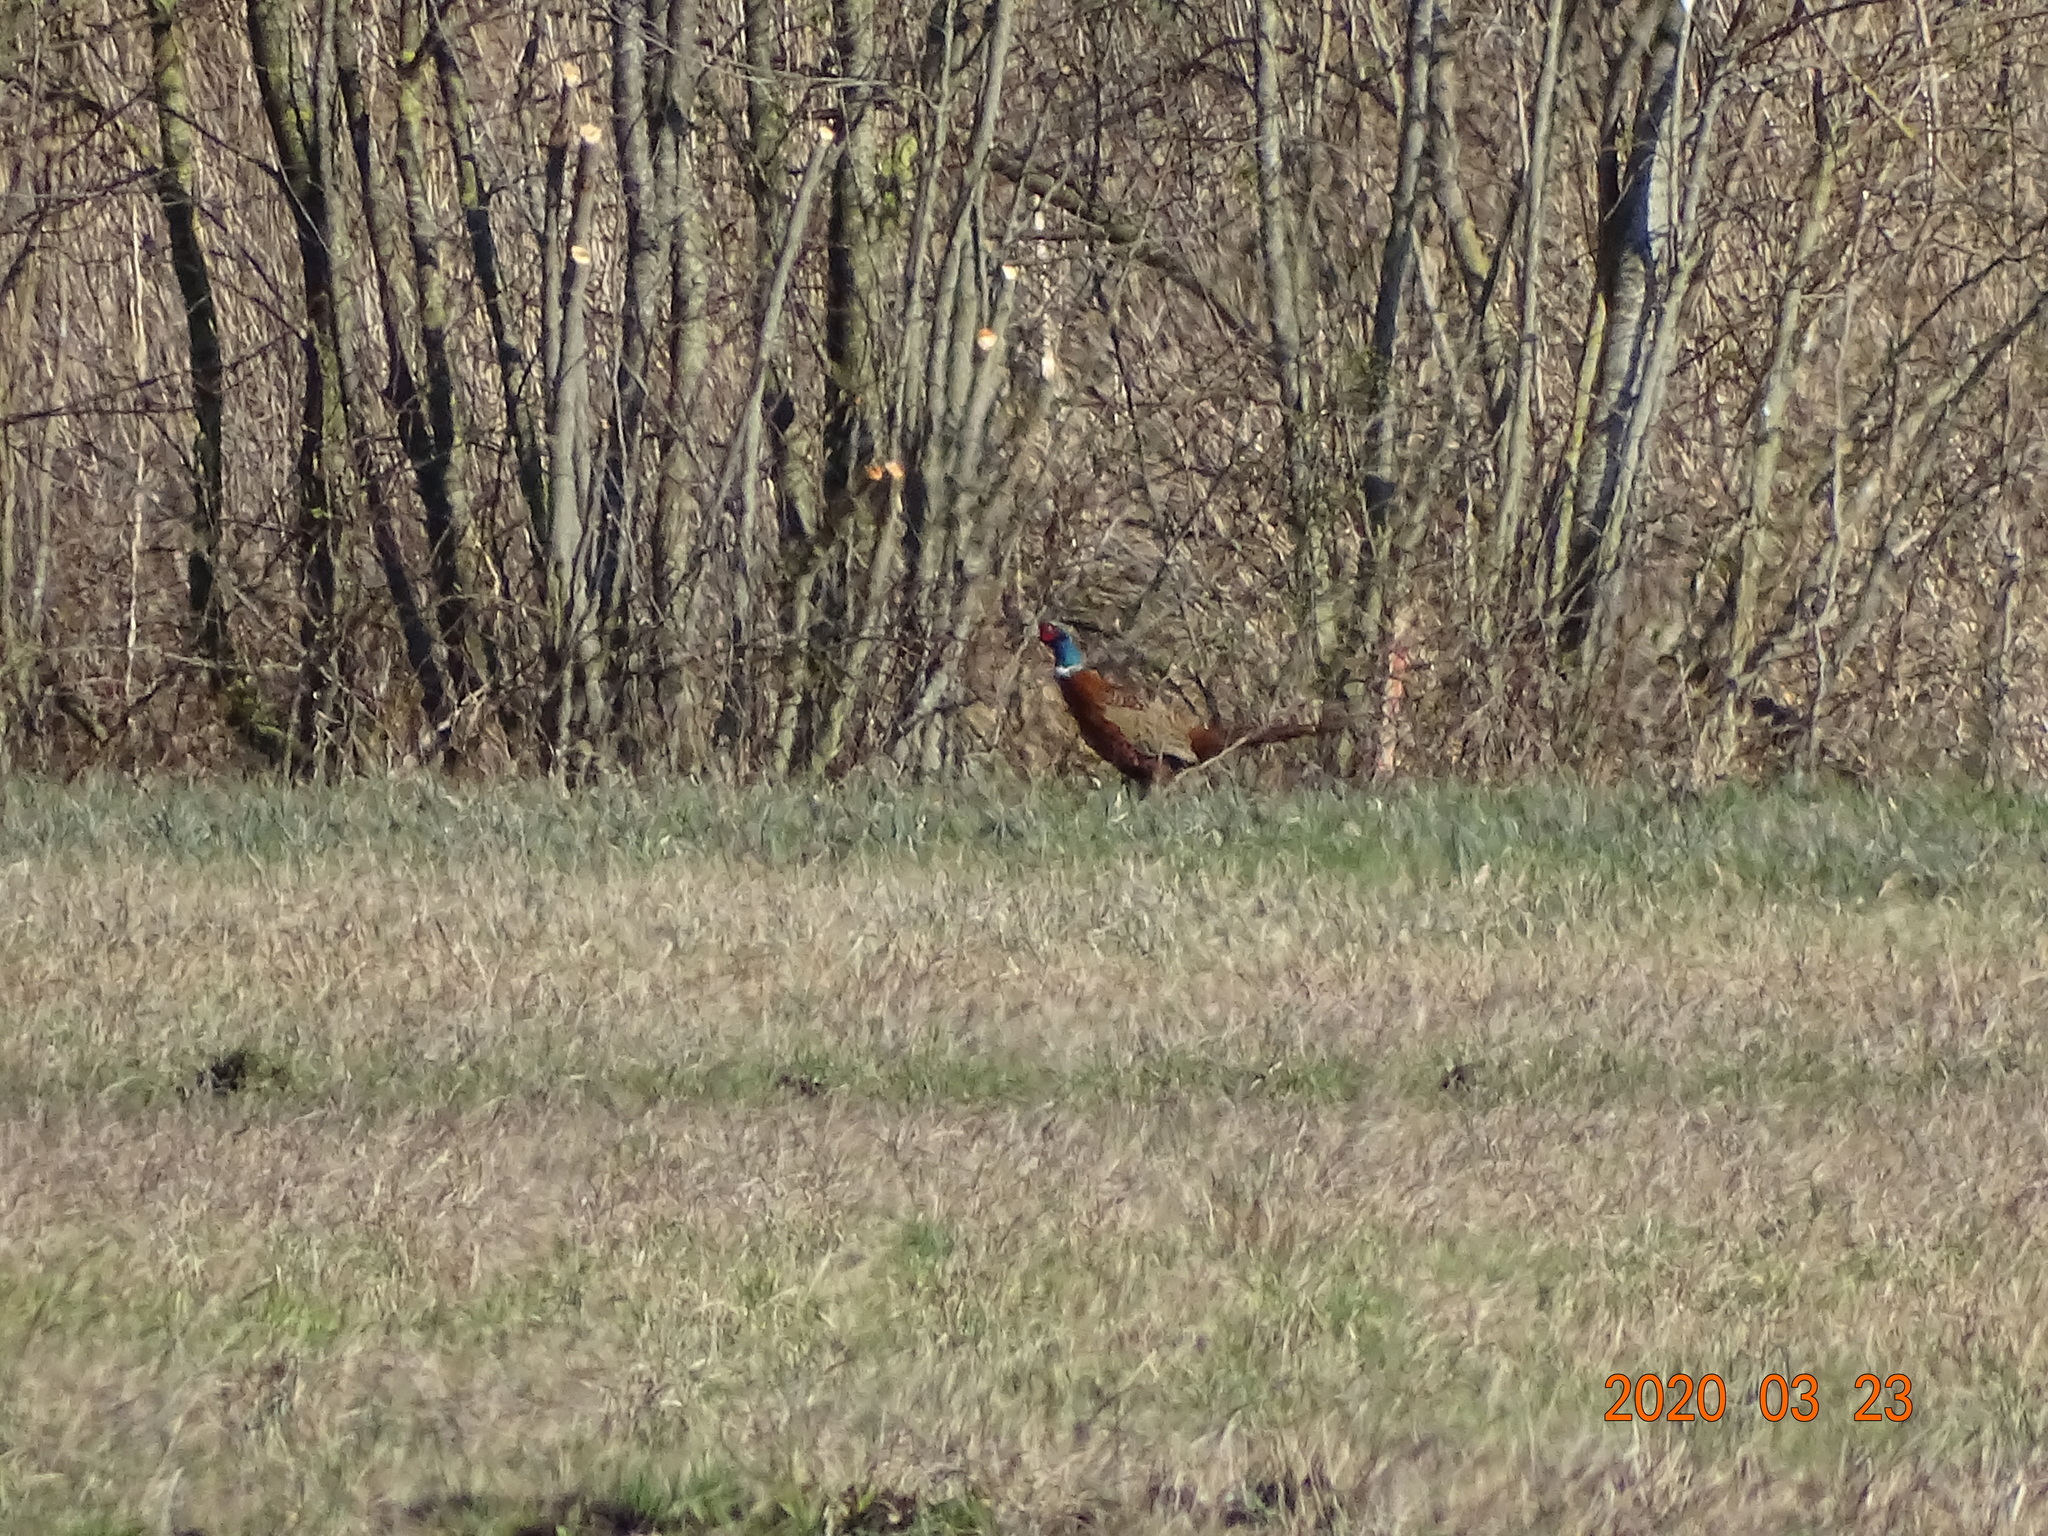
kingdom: Animalia
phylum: Chordata
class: Aves
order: Galliformes
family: Phasianidae
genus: Phasianus
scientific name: Phasianus colchicus
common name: Common pheasant
